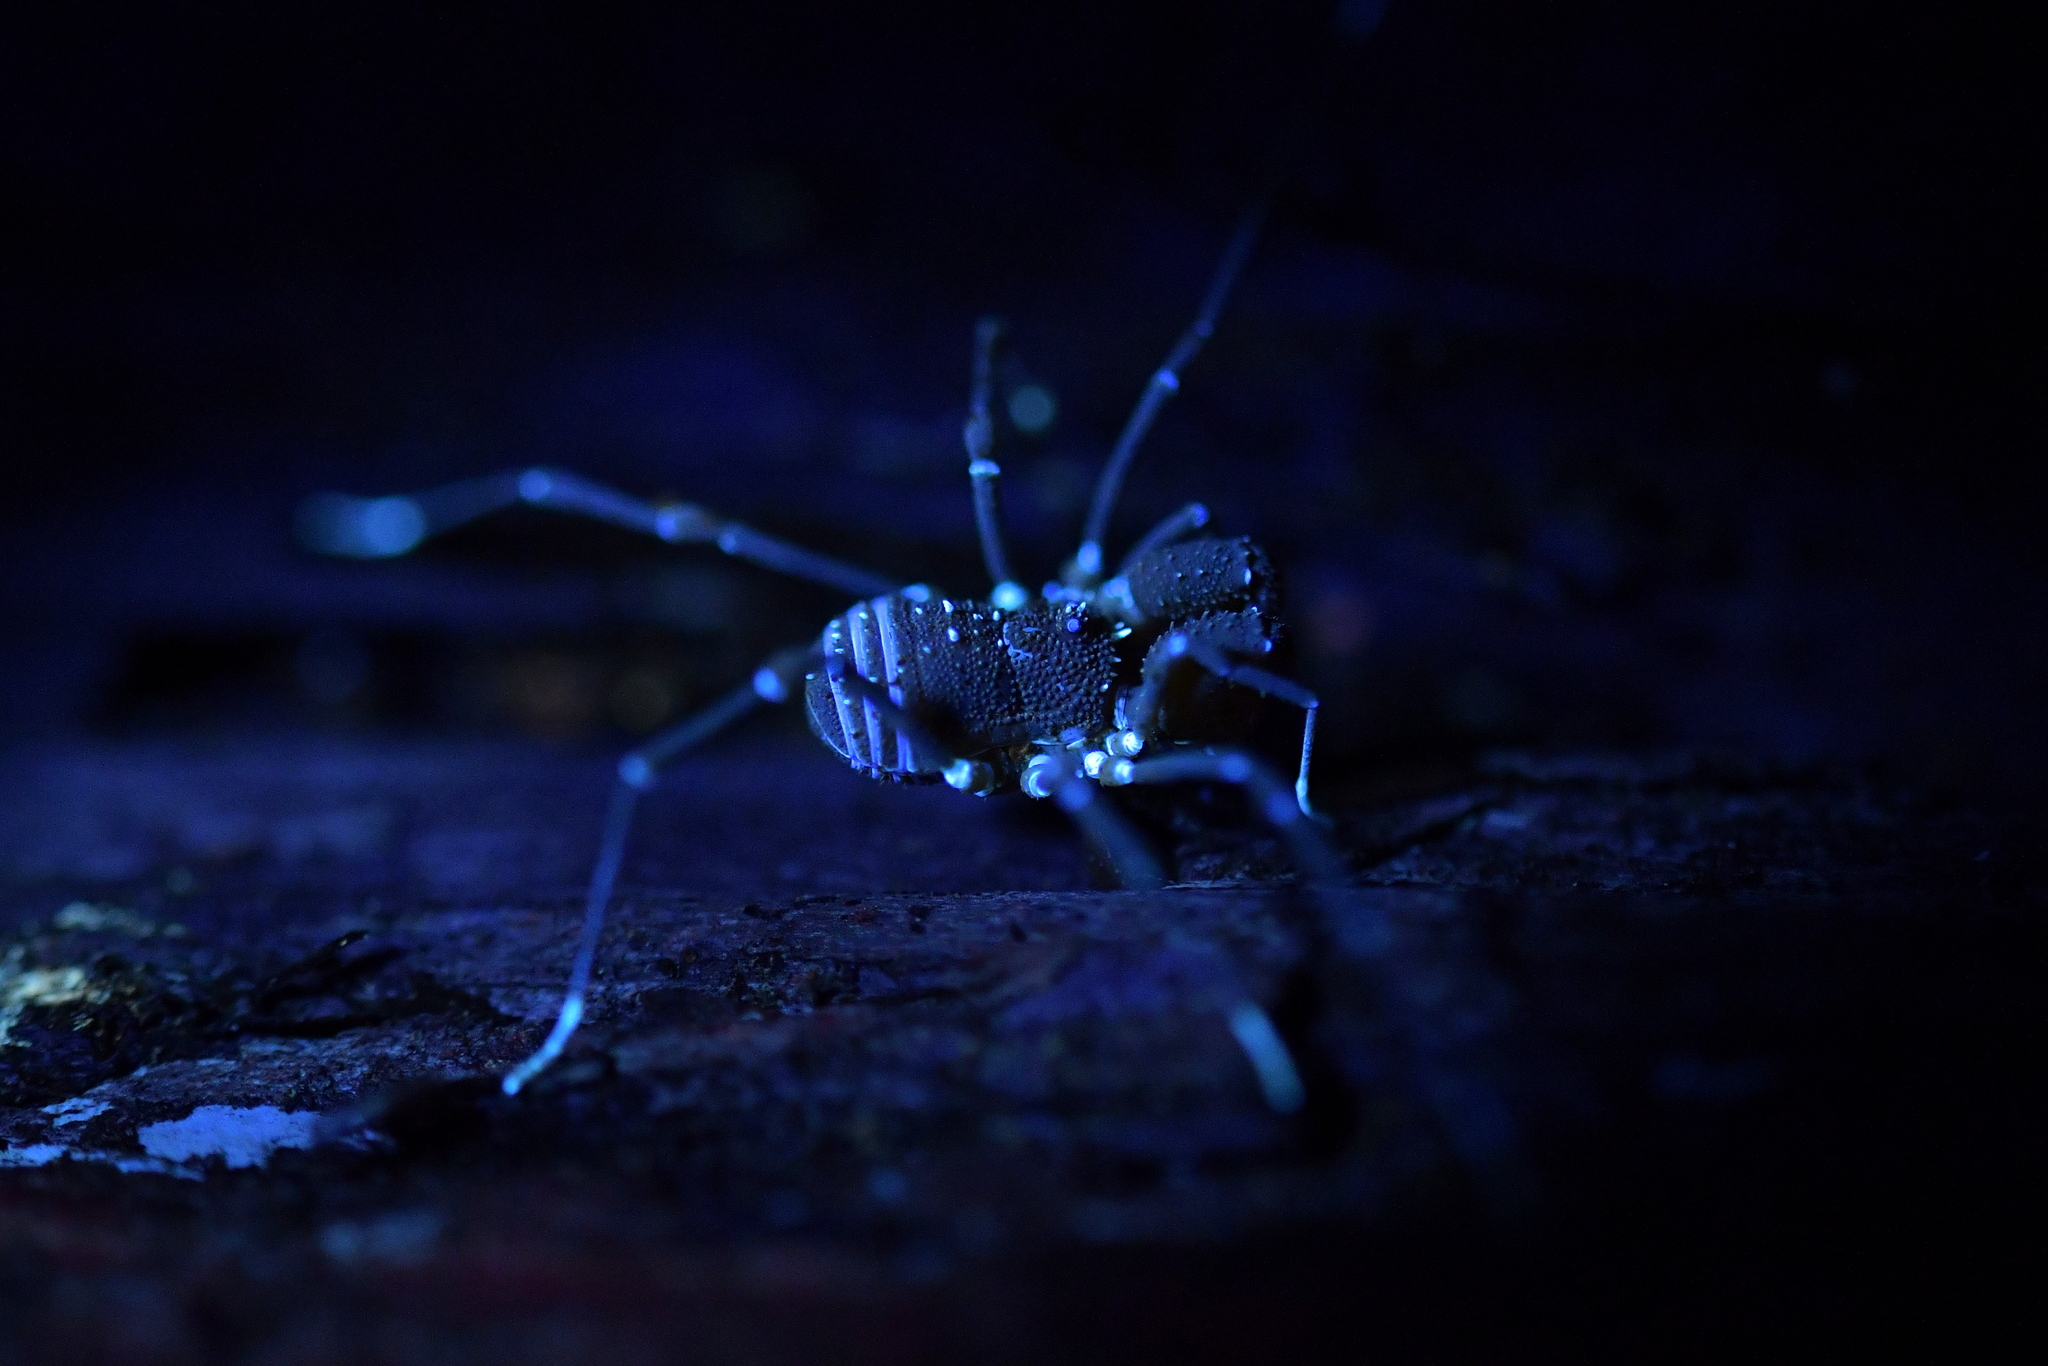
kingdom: Animalia
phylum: Arthropoda
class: Arachnida
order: Opiliones
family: Triaenonychidae
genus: Prasma
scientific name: Prasma tuberculata
